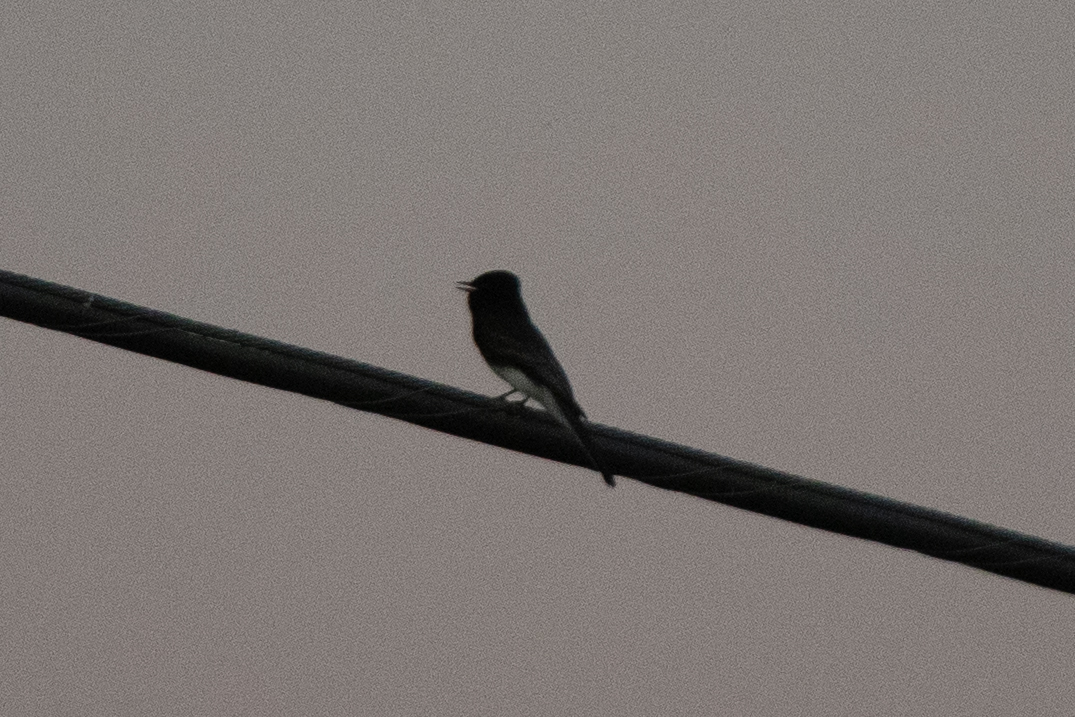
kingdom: Animalia
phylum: Chordata
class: Aves
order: Passeriformes
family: Tyrannidae
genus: Sayornis
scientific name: Sayornis nigricans
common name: Black phoebe
